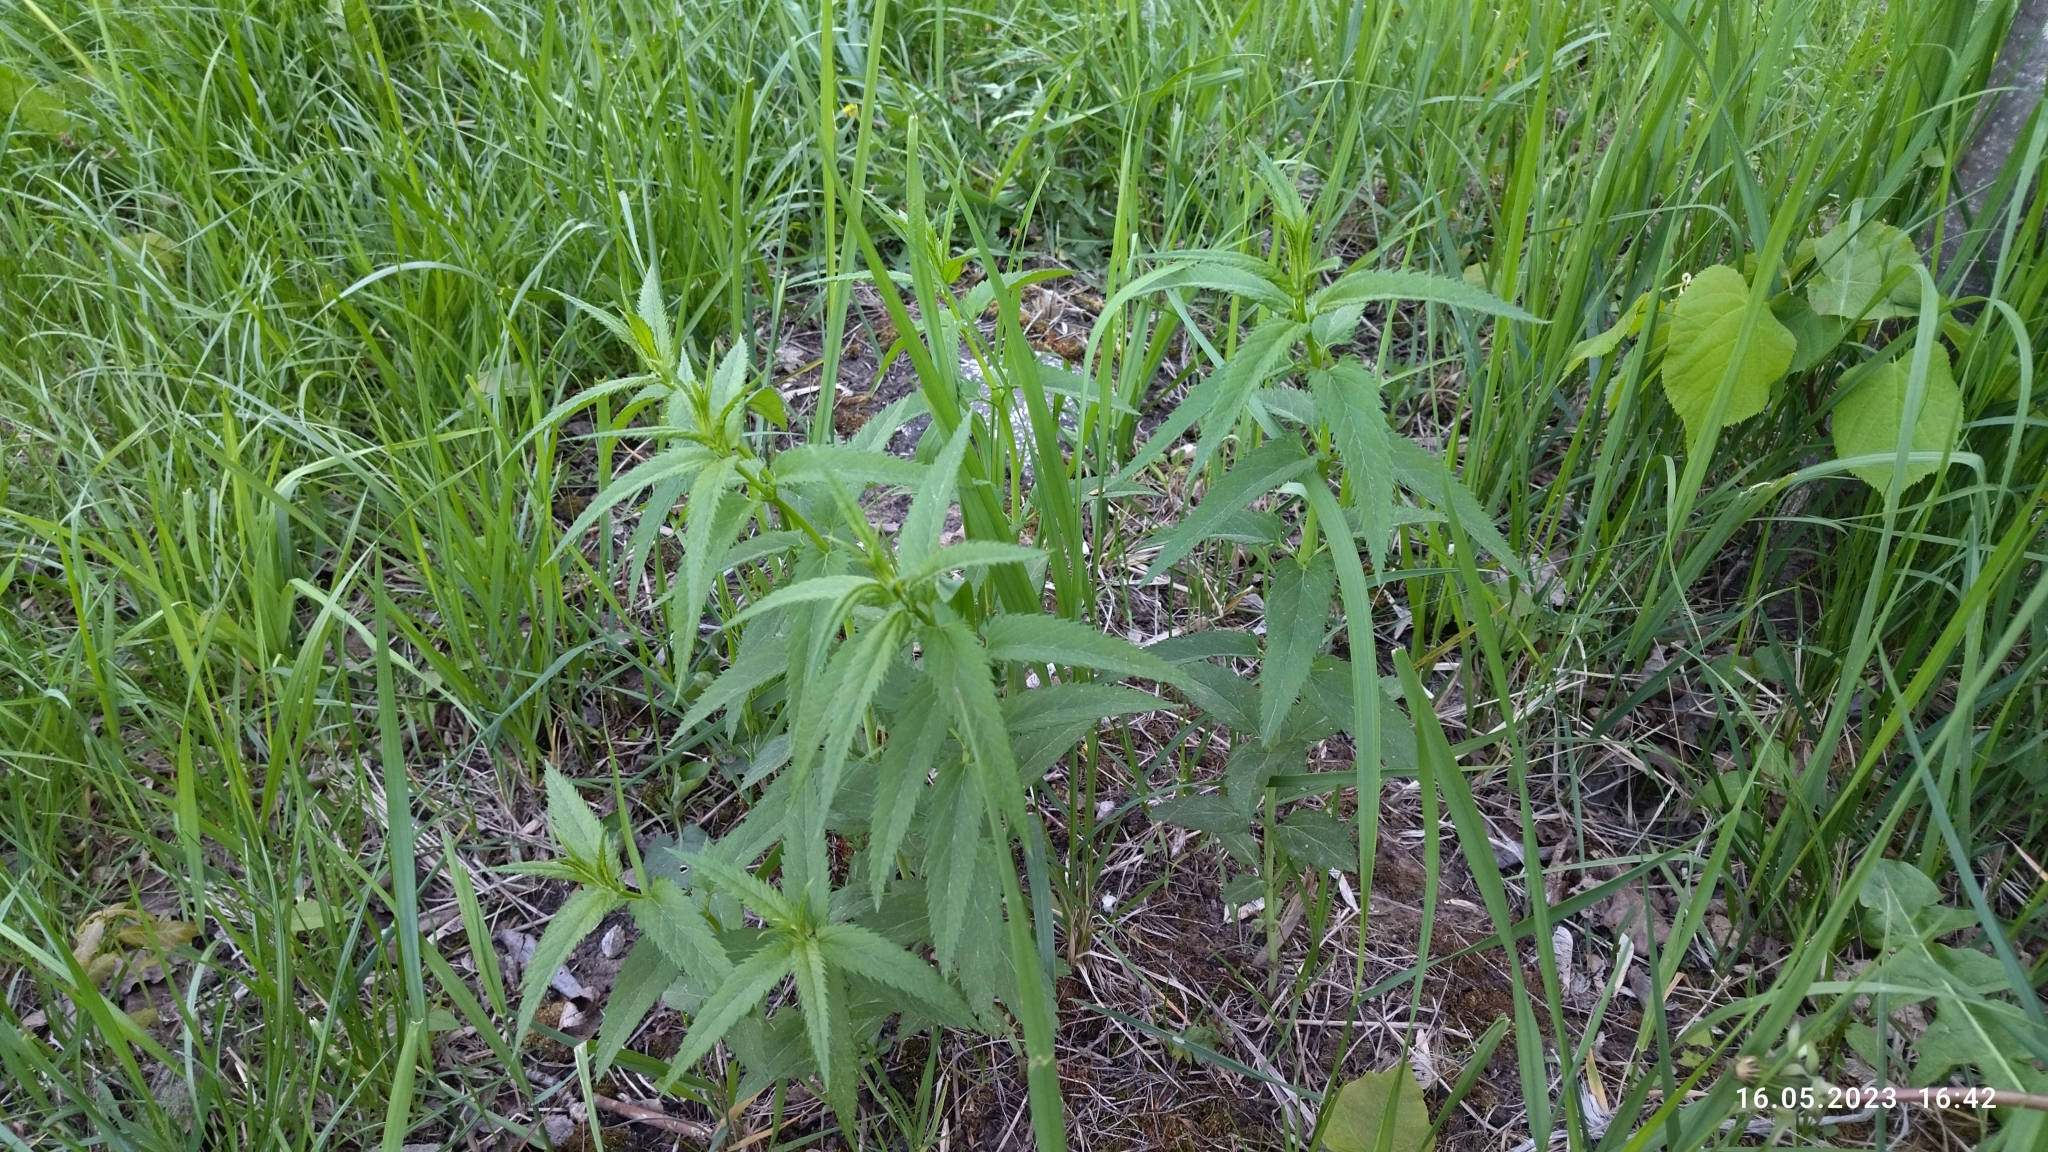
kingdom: Plantae
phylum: Tracheophyta
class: Magnoliopsida
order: Lamiales
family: Plantaginaceae
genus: Veronica
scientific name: Veronica longifolia
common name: Garden speedwell
